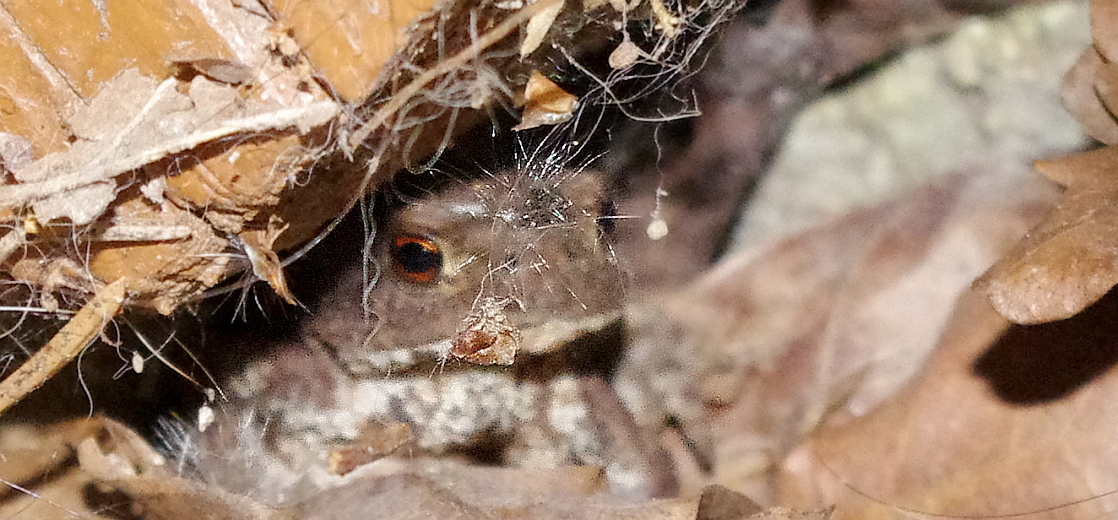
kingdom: Animalia
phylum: Chordata
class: Amphibia
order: Anura
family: Bufonidae
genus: Bufo
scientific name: Bufo bufo
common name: Common toad
